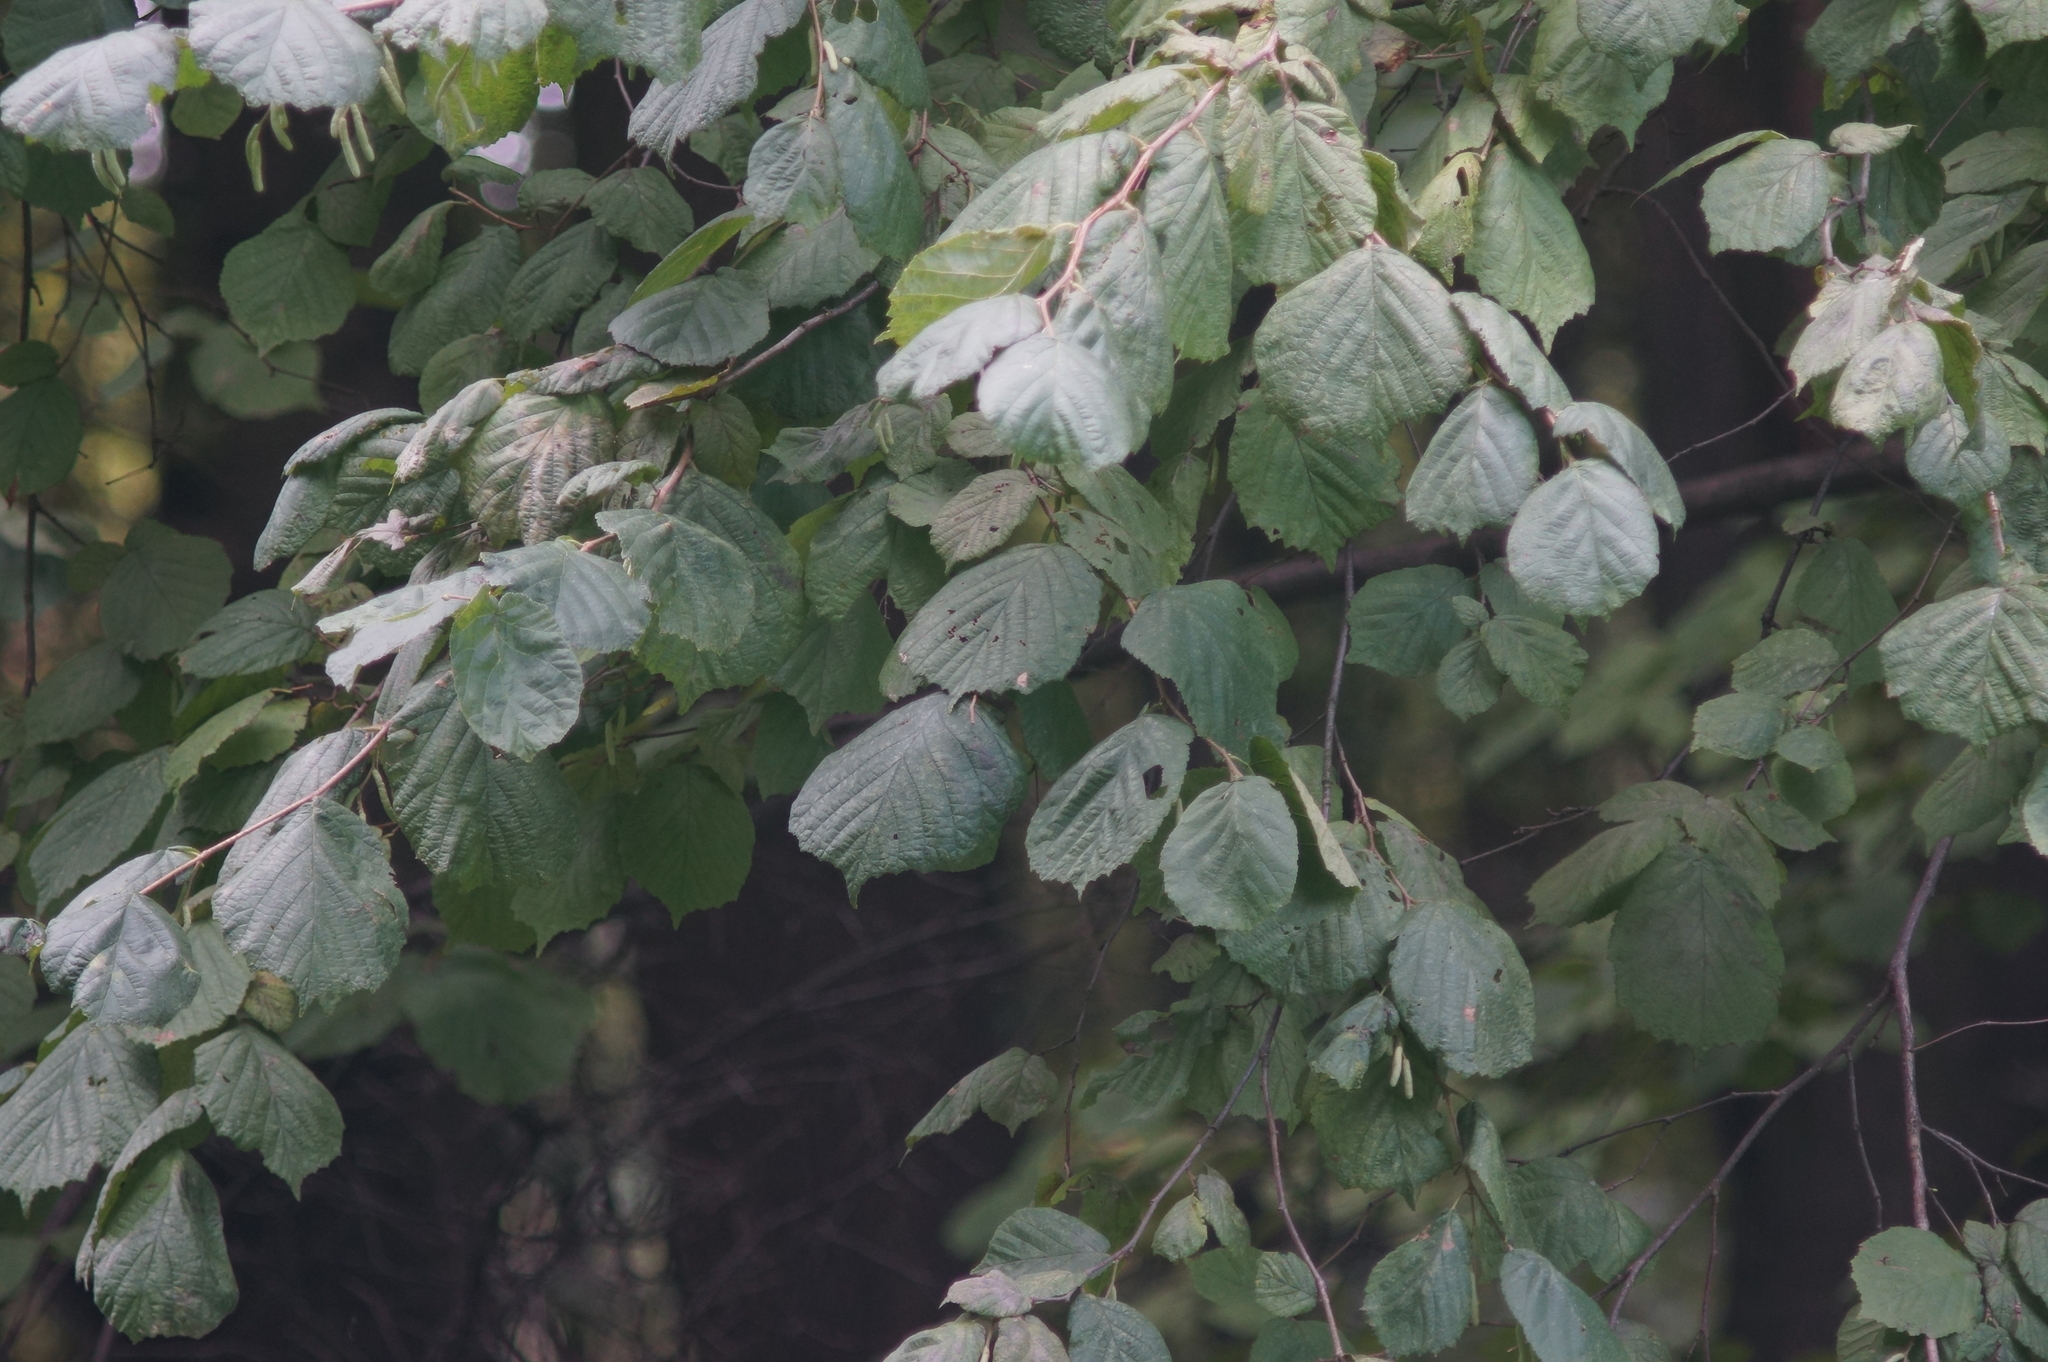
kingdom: Plantae
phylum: Tracheophyta
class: Magnoliopsida
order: Fagales
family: Betulaceae
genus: Corylus
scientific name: Corylus avellana
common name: European hazel
